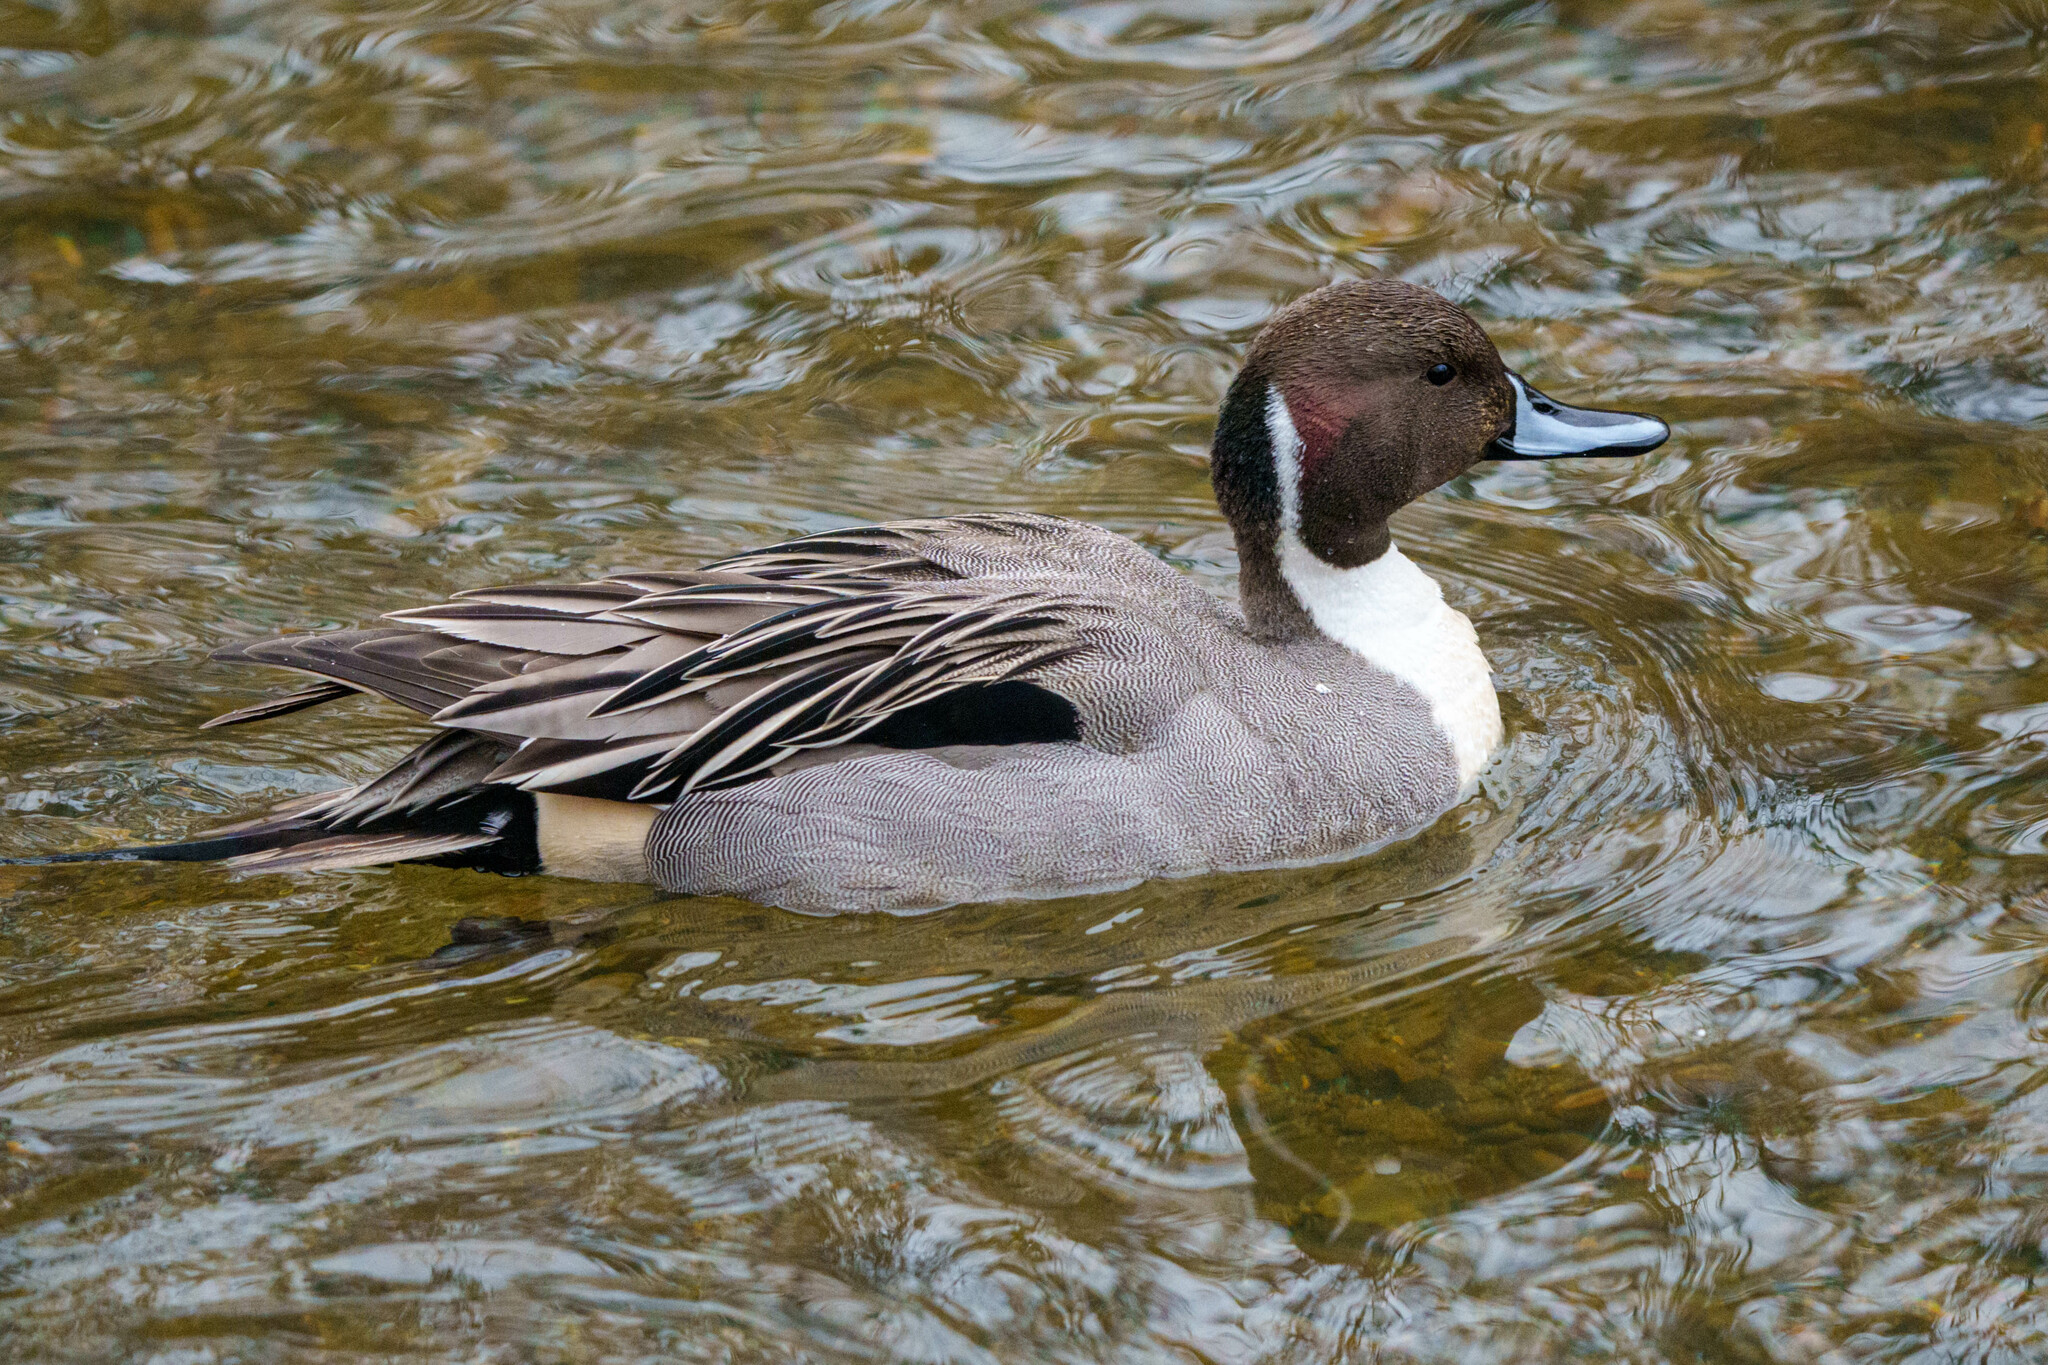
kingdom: Animalia
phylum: Chordata
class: Aves
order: Anseriformes
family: Anatidae
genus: Anas
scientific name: Anas acuta
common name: Northern pintail
